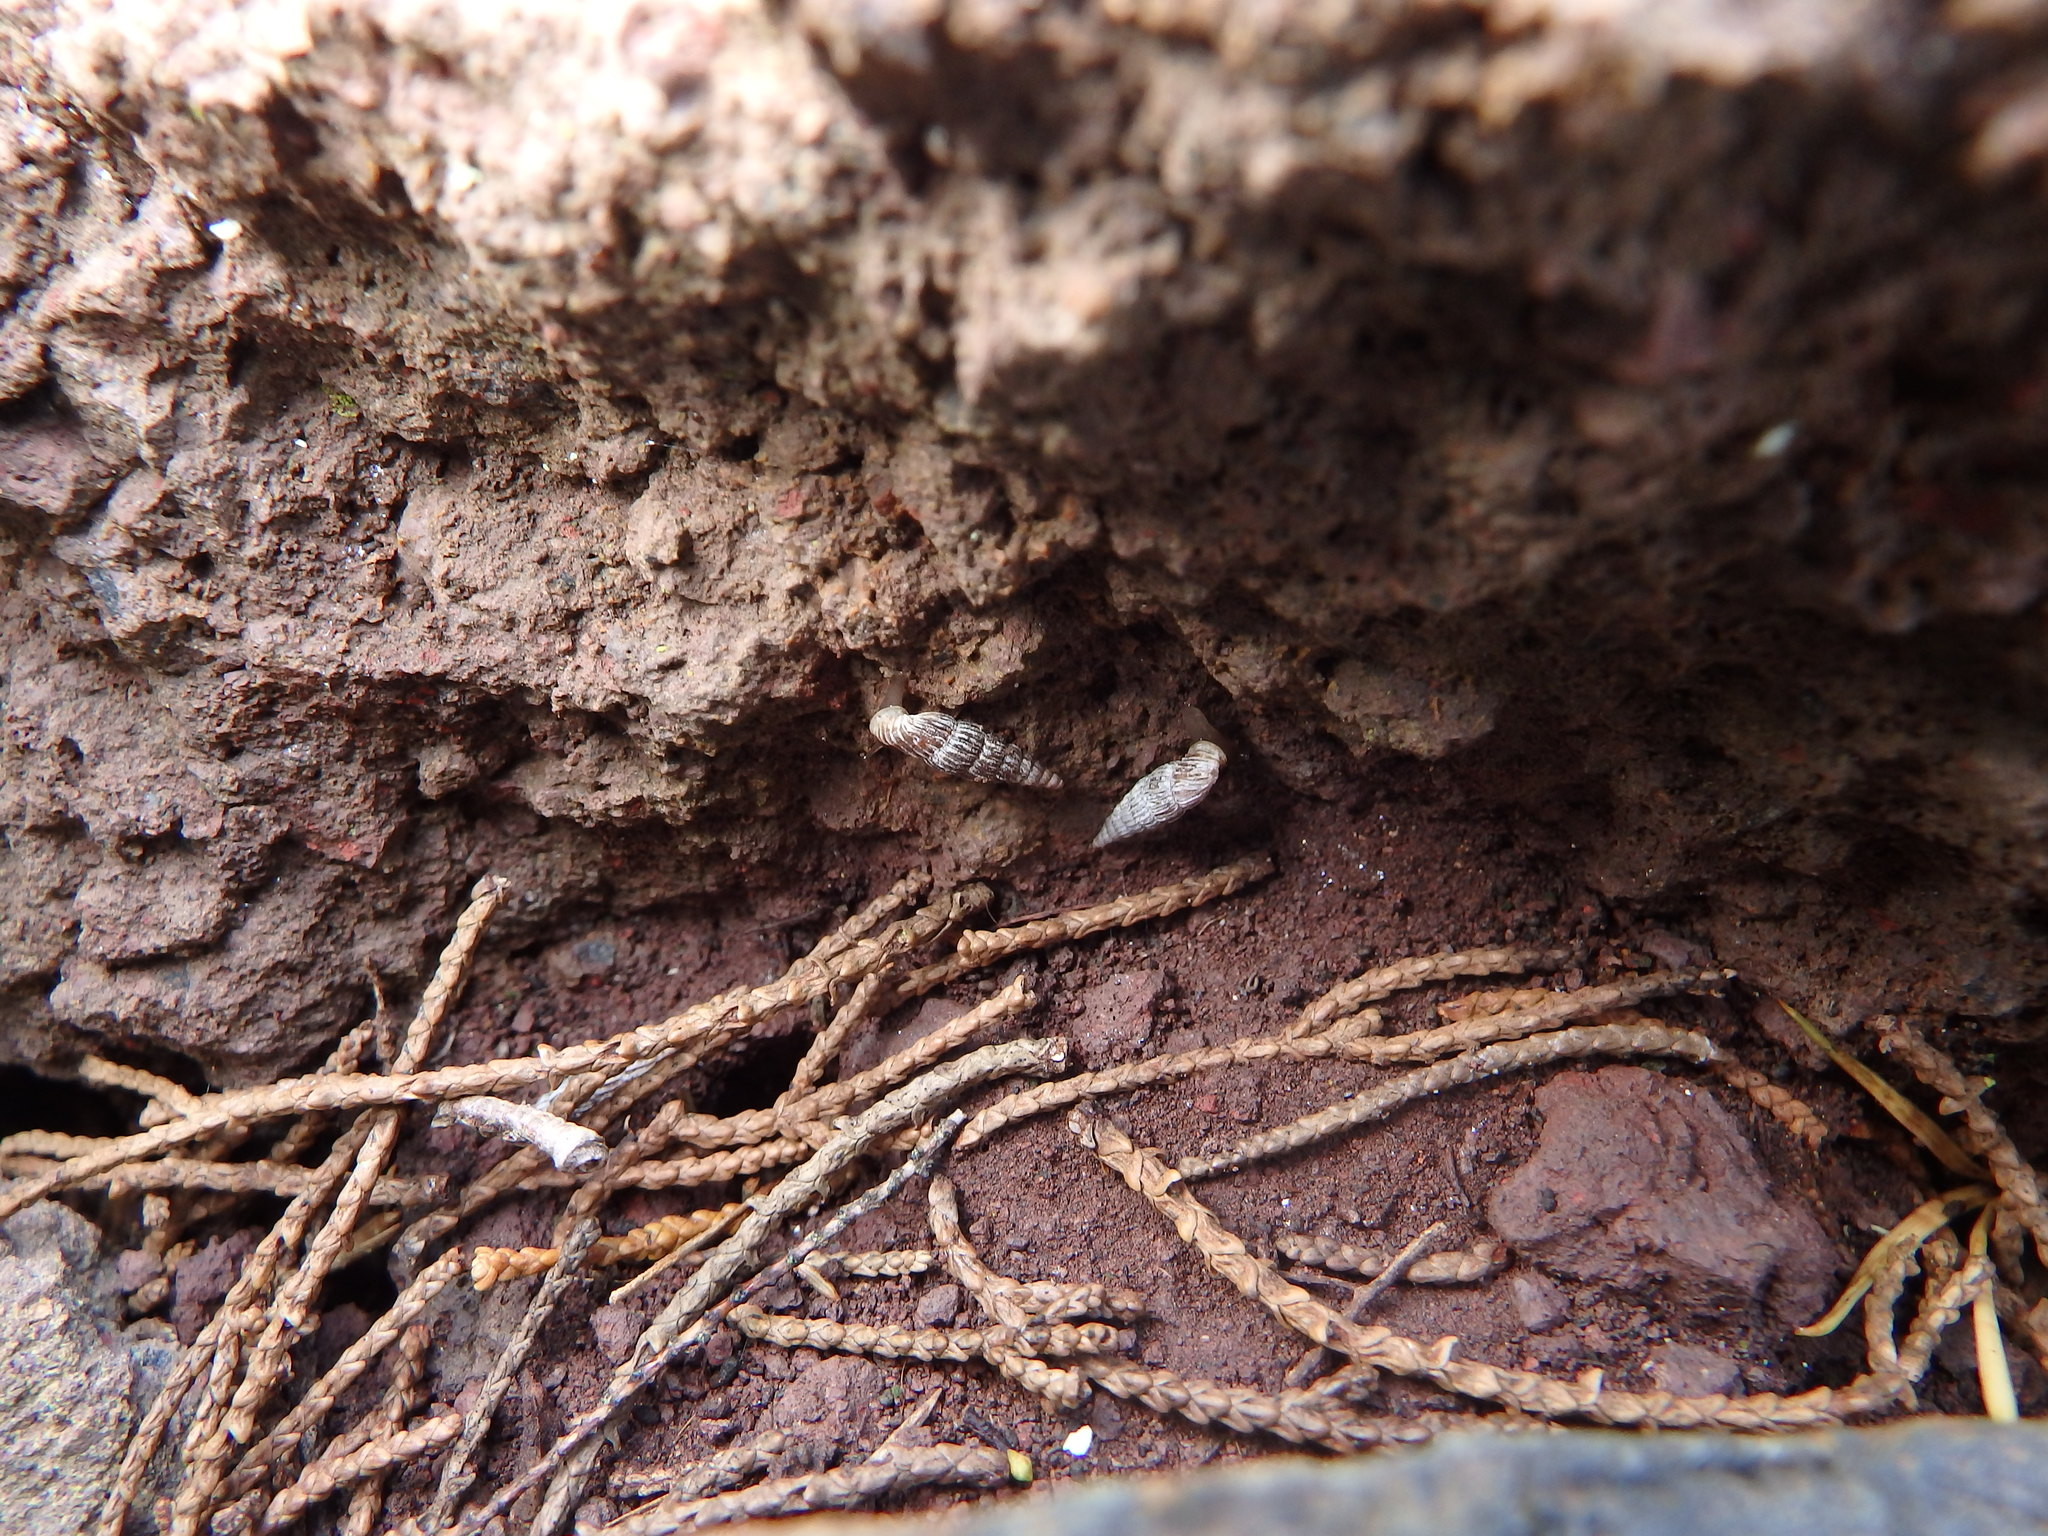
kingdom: Animalia
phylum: Mollusca
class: Gastropoda
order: Stylommatophora
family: Clausiliidae
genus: Boettgeria
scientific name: Boettgeria lowei
